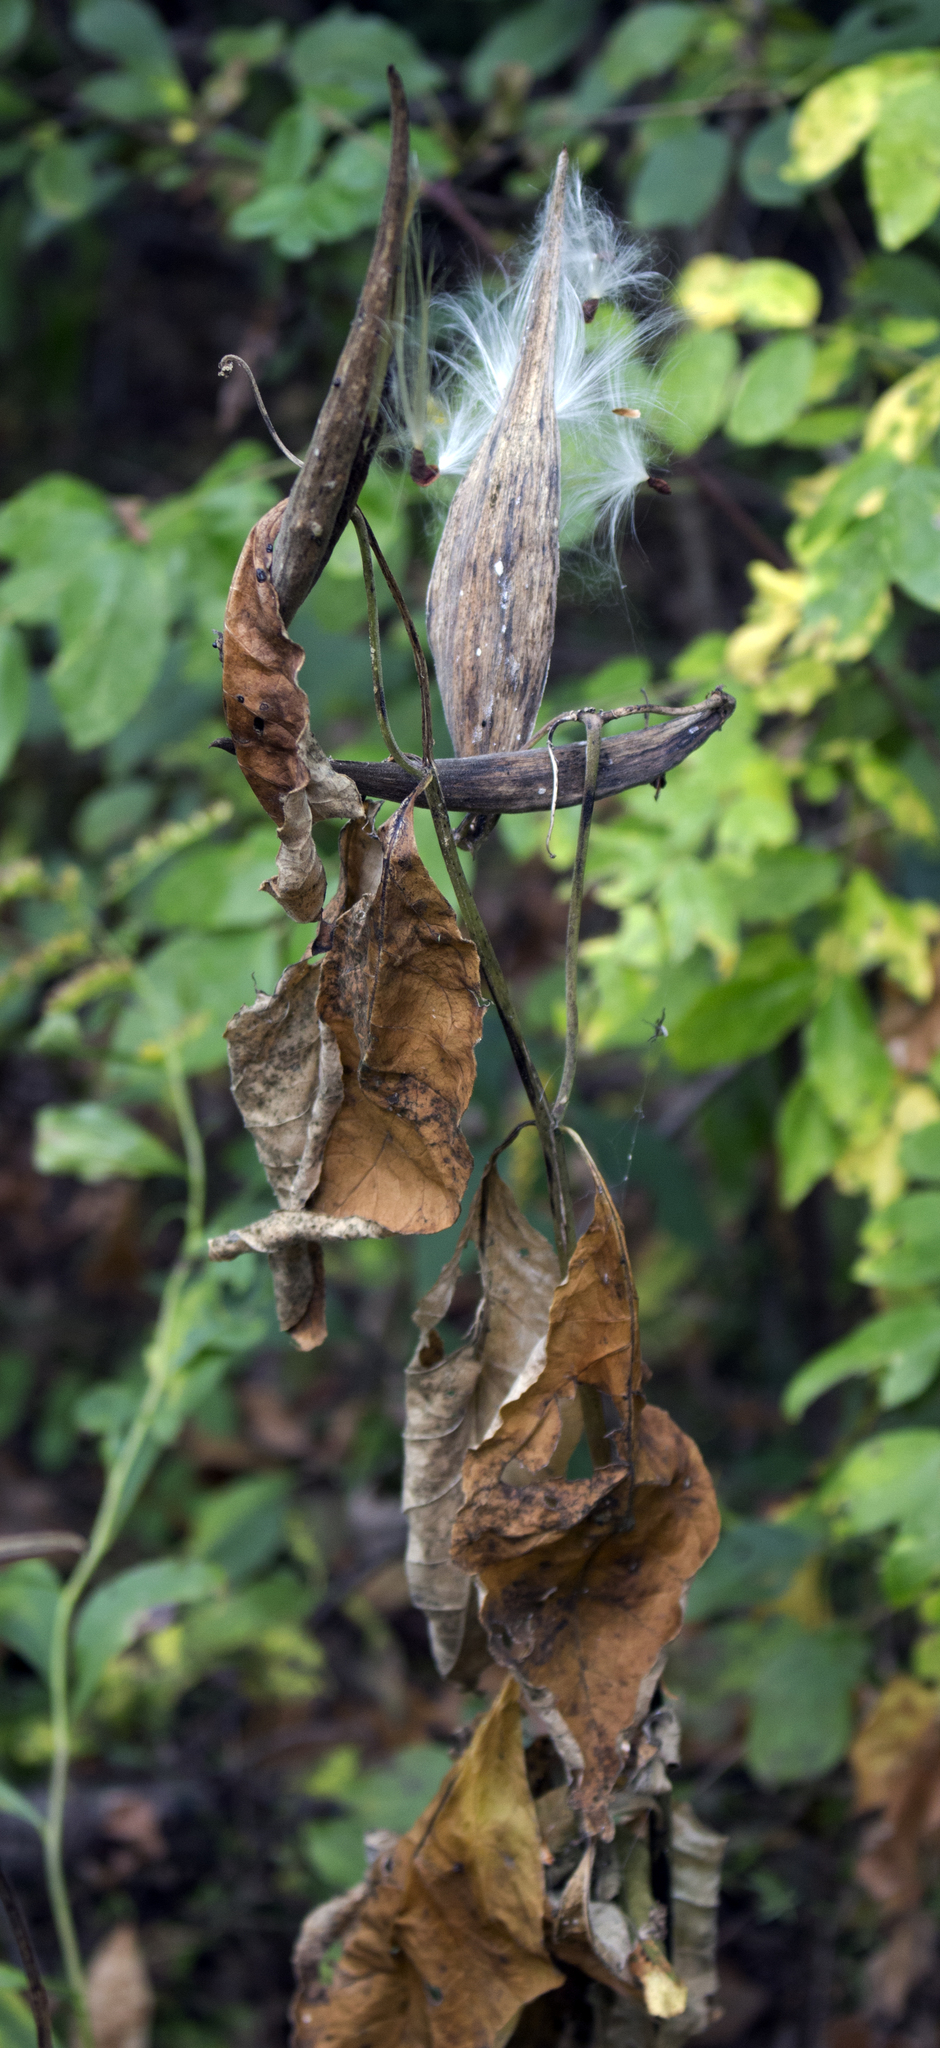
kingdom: Plantae
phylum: Tracheophyta
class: Magnoliopsida
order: Gentianales
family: Apocynaceae
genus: Asclepias
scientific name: Asclepias exaltata
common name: Poke milkweed
